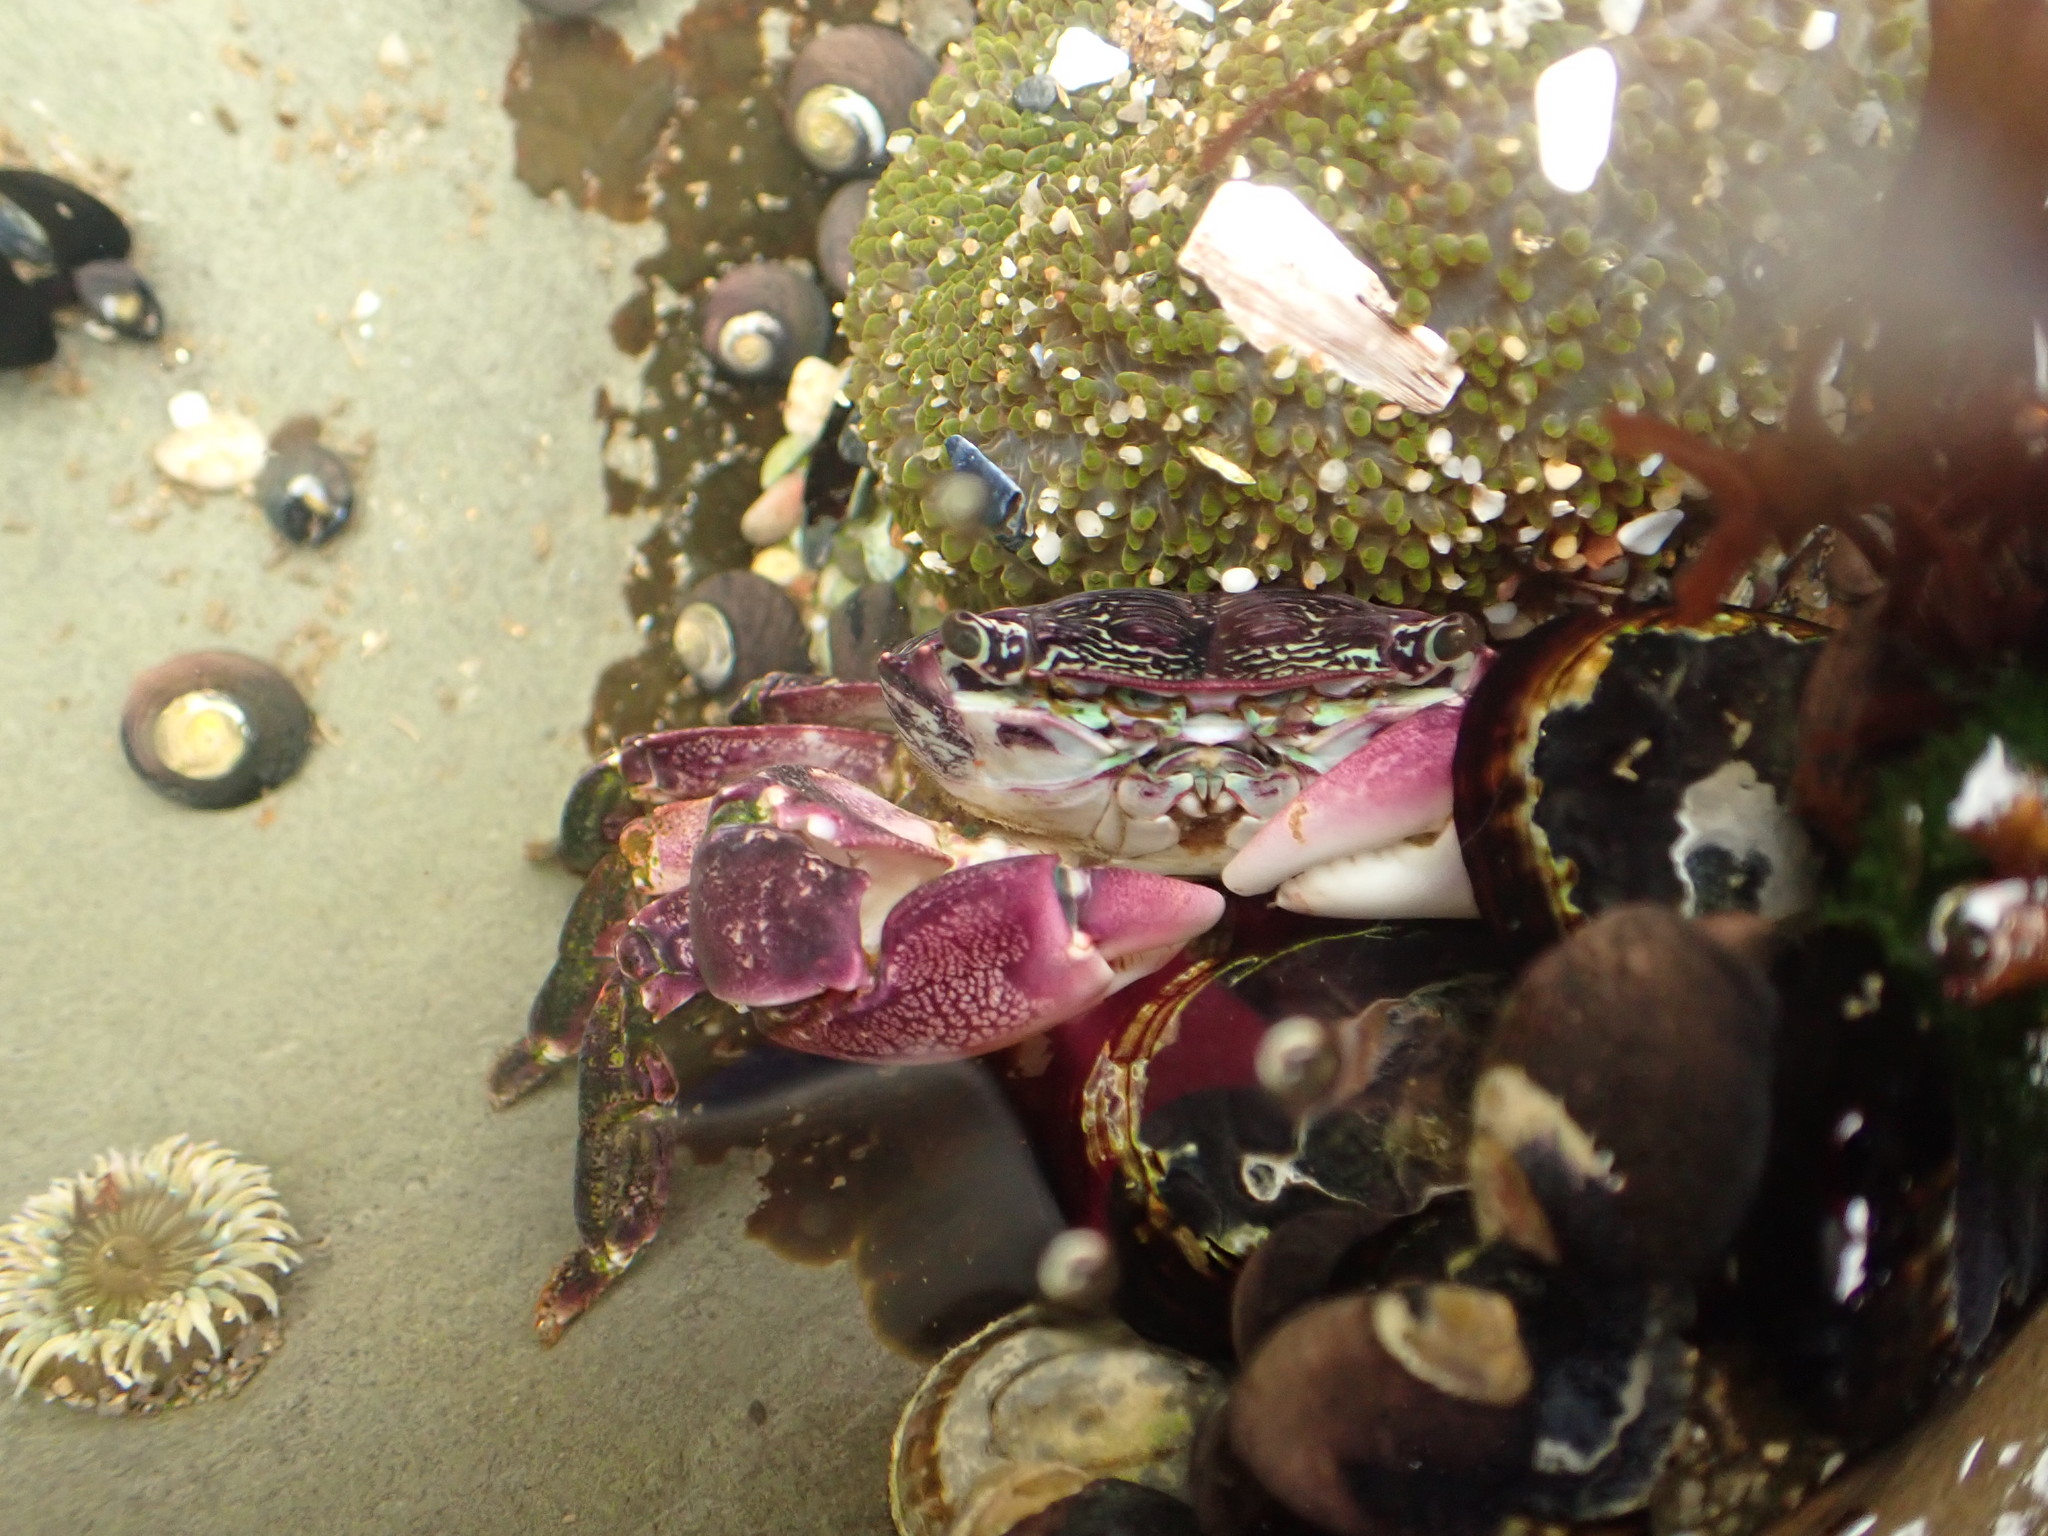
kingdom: Animalia
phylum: Arthropoda
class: Malacostraca
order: Decapoda
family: Grapsidae
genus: Pachygrapsus
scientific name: Pachygrapsus crassipes
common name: Striped shore crab
